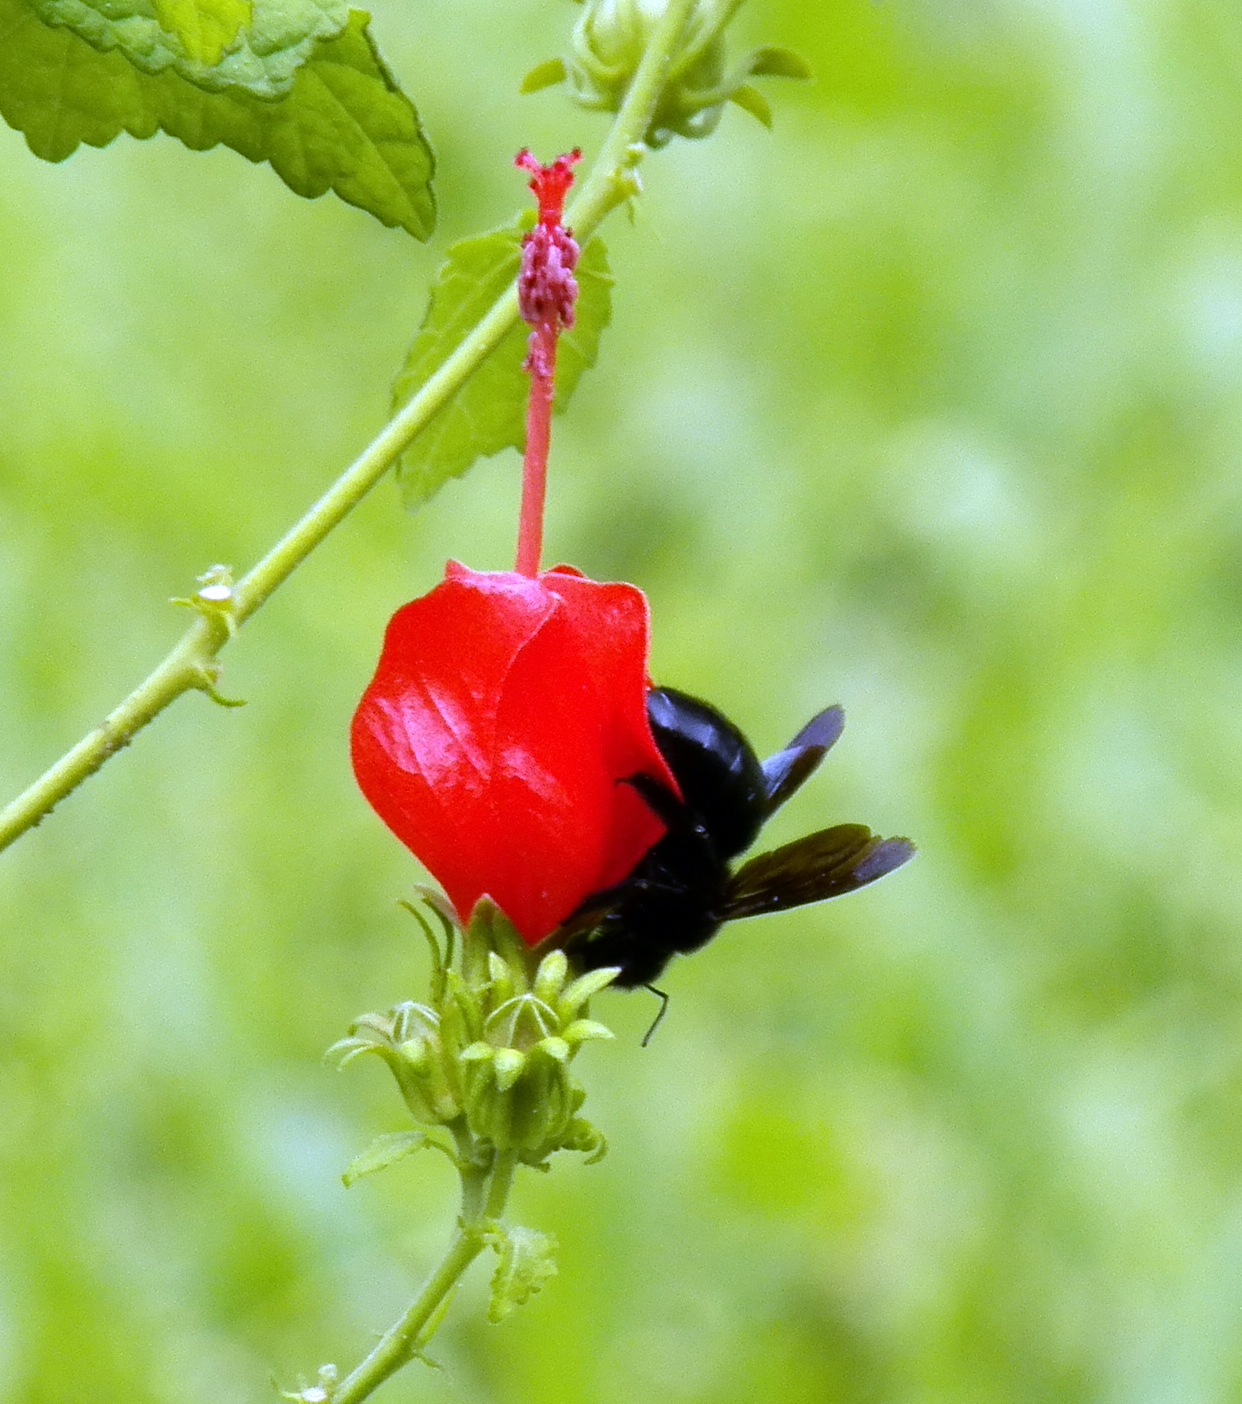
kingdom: Animalia
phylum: Arthropoda
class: Insecta
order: Hymenoptera
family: Apidae
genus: Xylocopa
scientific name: Xylocopa strandi
